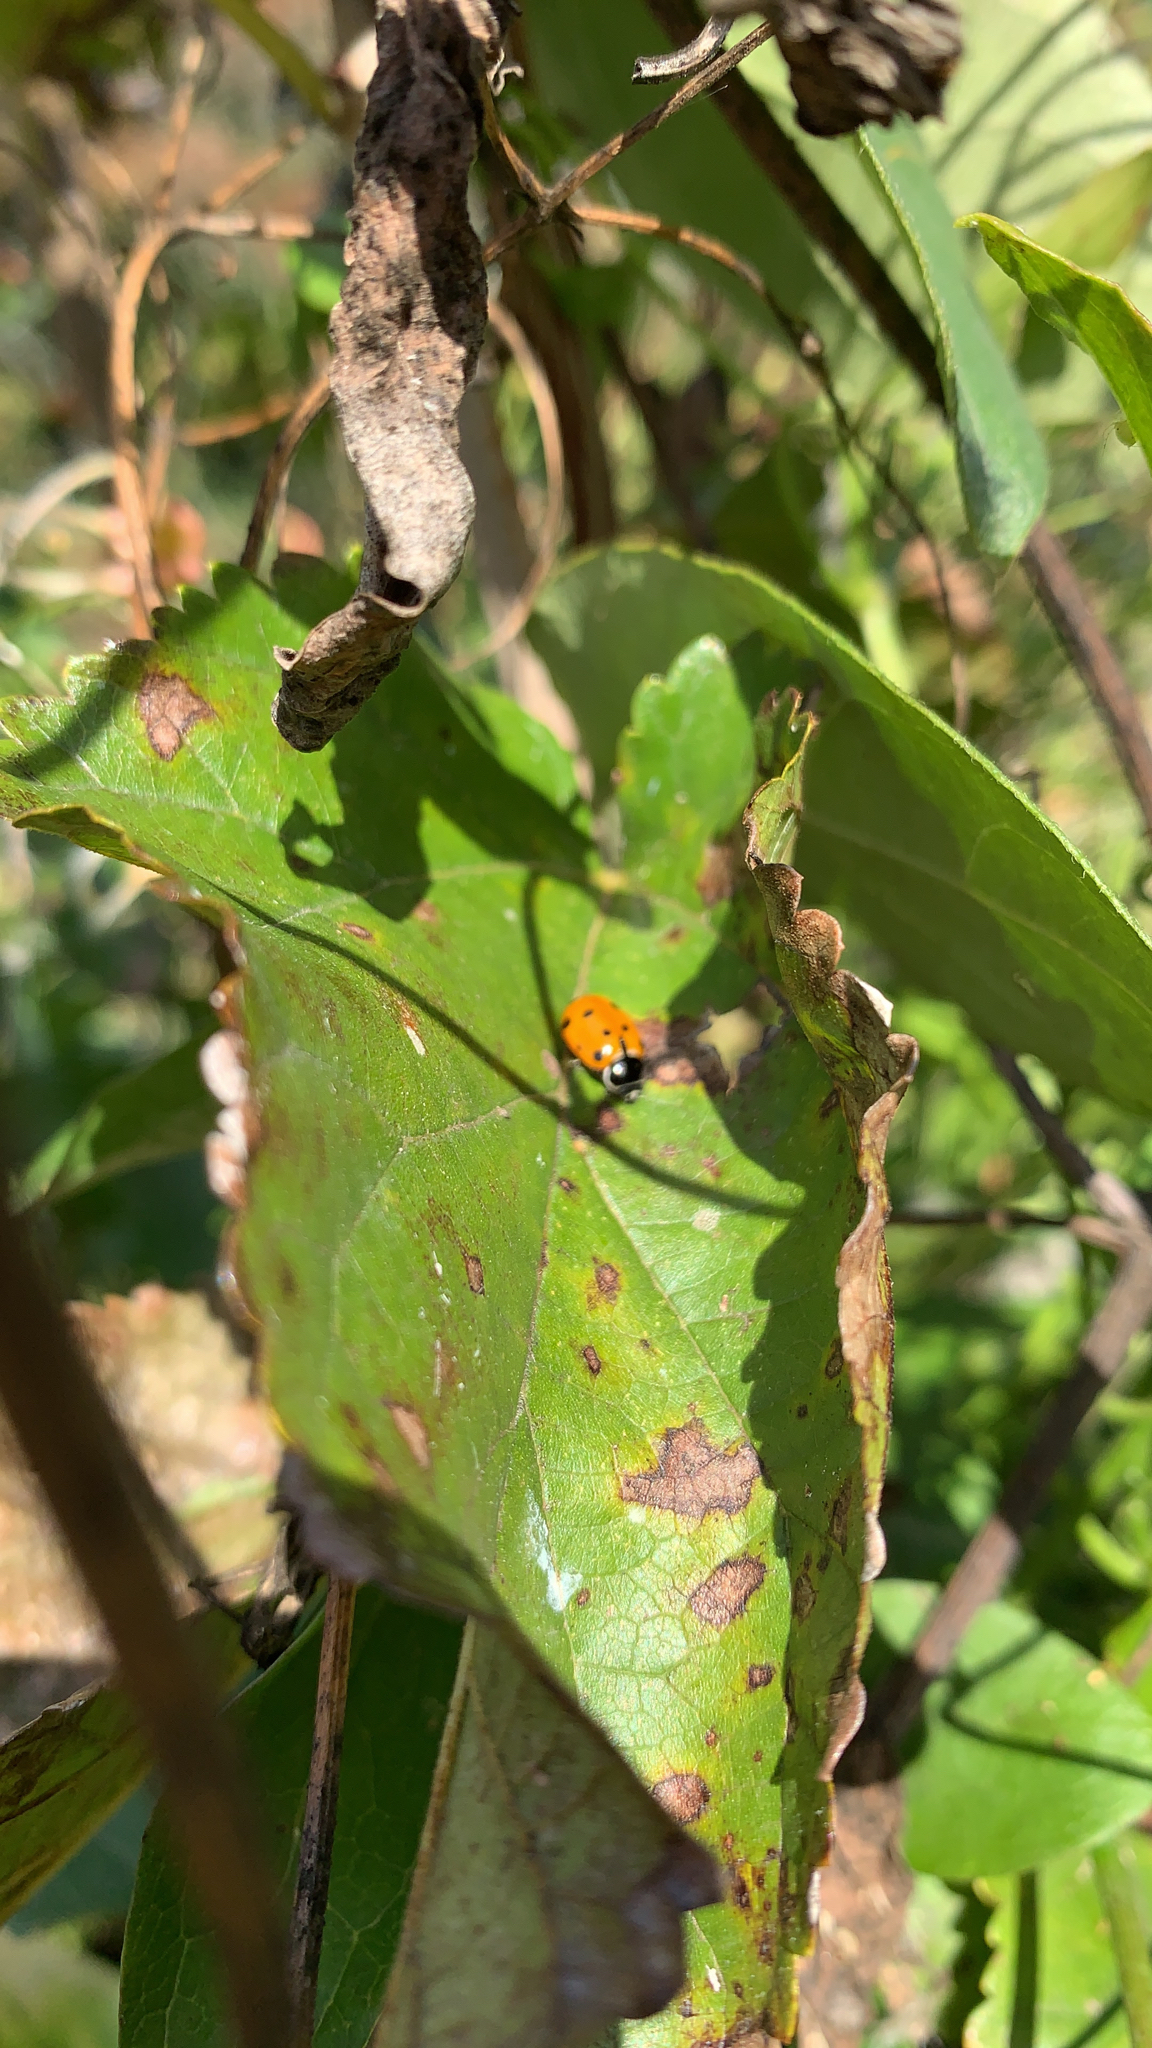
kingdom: Animalia
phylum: Arthropoda
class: Insecta
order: Coleoptera
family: Coccinellidae
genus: Hippodamia
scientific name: Hippodamia convergens
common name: Convergent lady beetle
